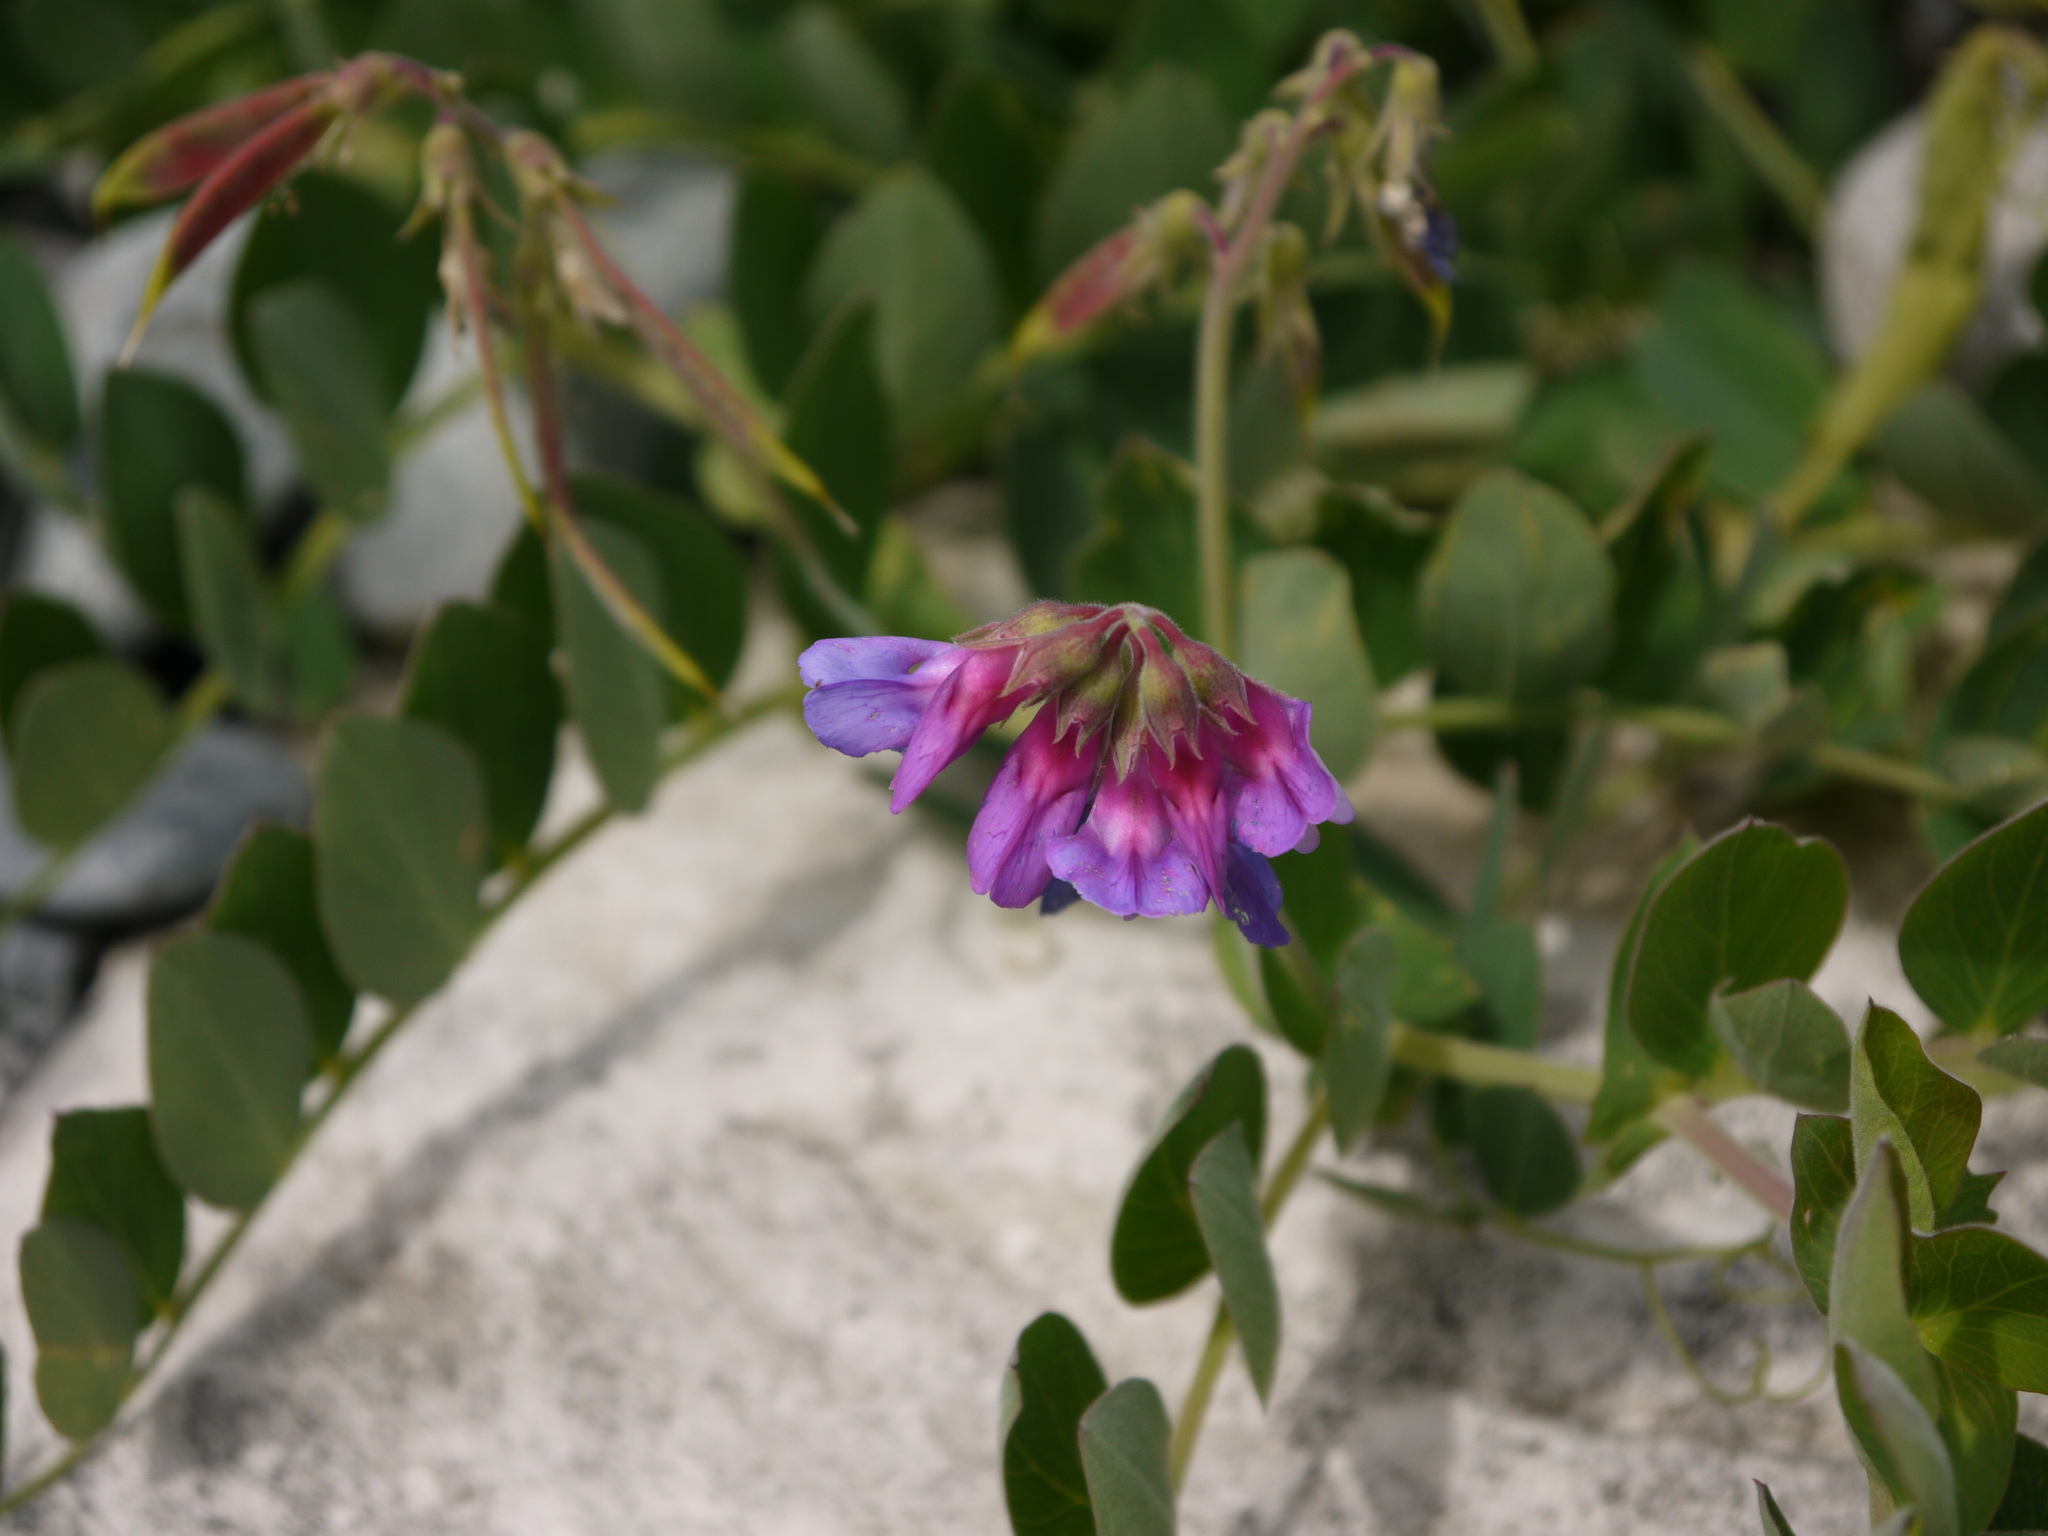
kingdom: Plantae
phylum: Tracheophyta
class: Magnoliopsida
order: Fabales
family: Fabaceae
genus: Lathyrus
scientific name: Lathyrus japonicus
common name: Sea pea
